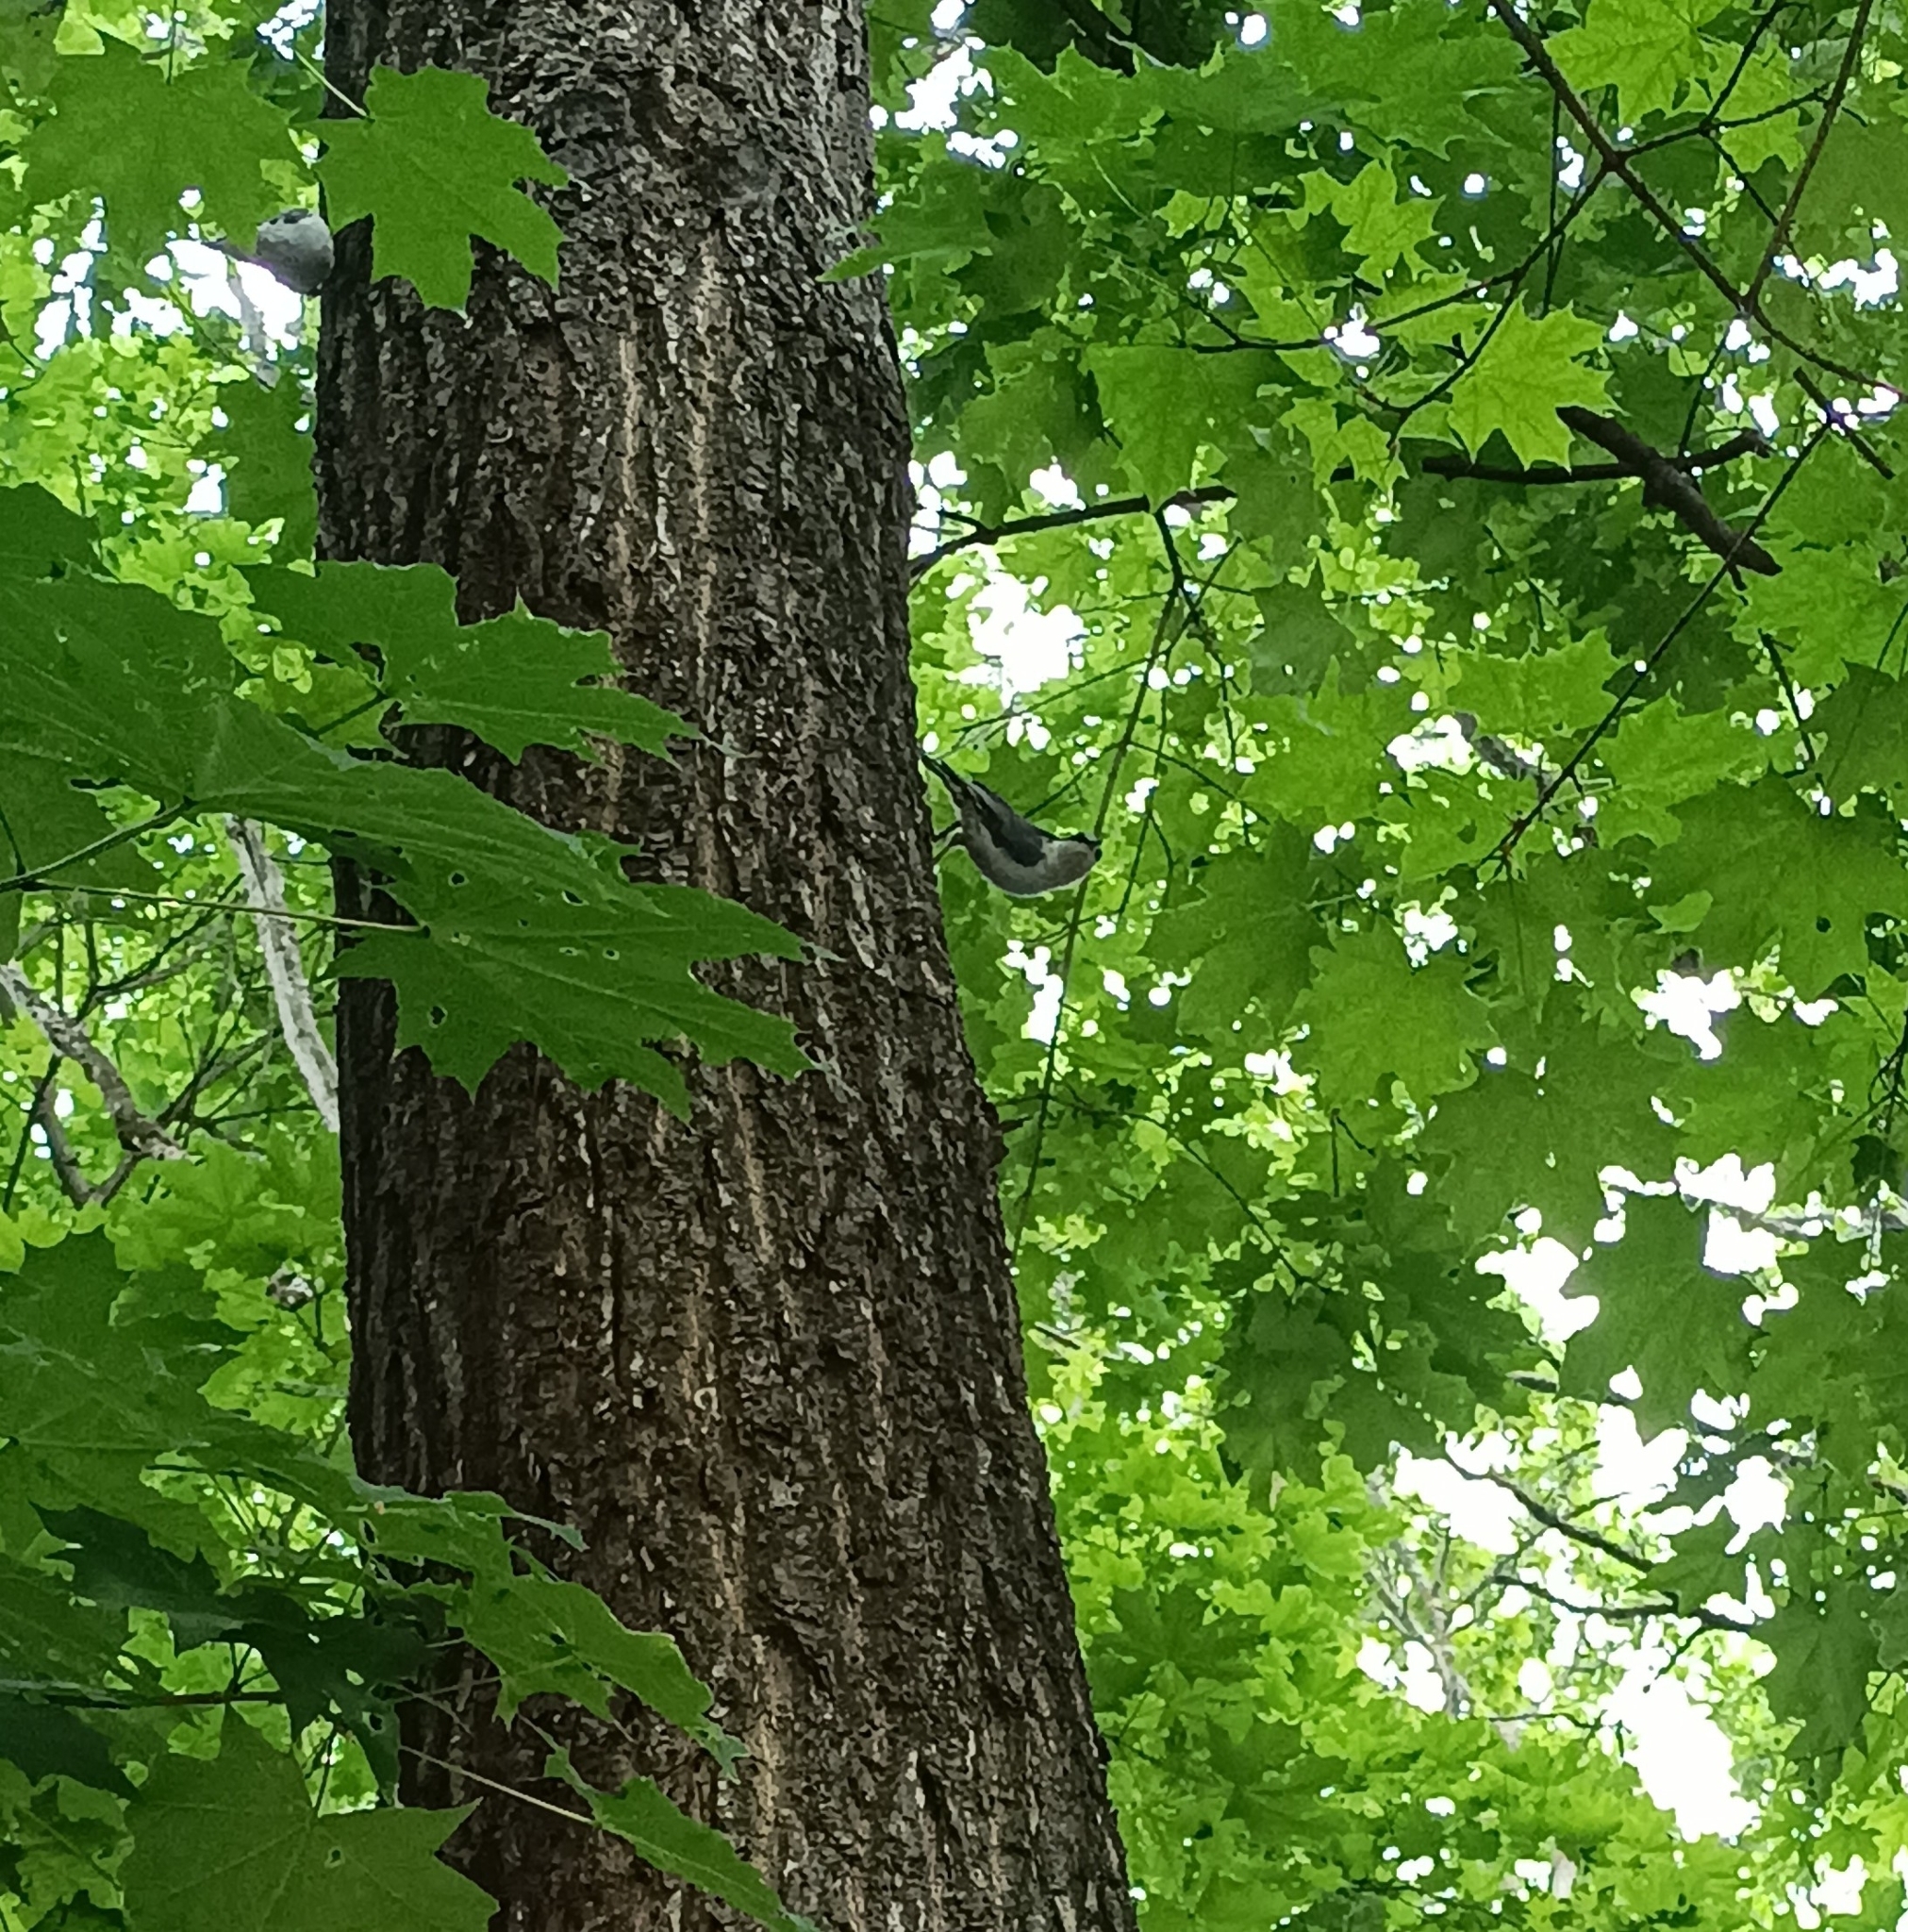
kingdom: Animalia
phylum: Chordata
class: Aves
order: Passeriformes
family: Sittidae
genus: Sitta
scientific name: Sitta europaea
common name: Eurasian nuthatch
